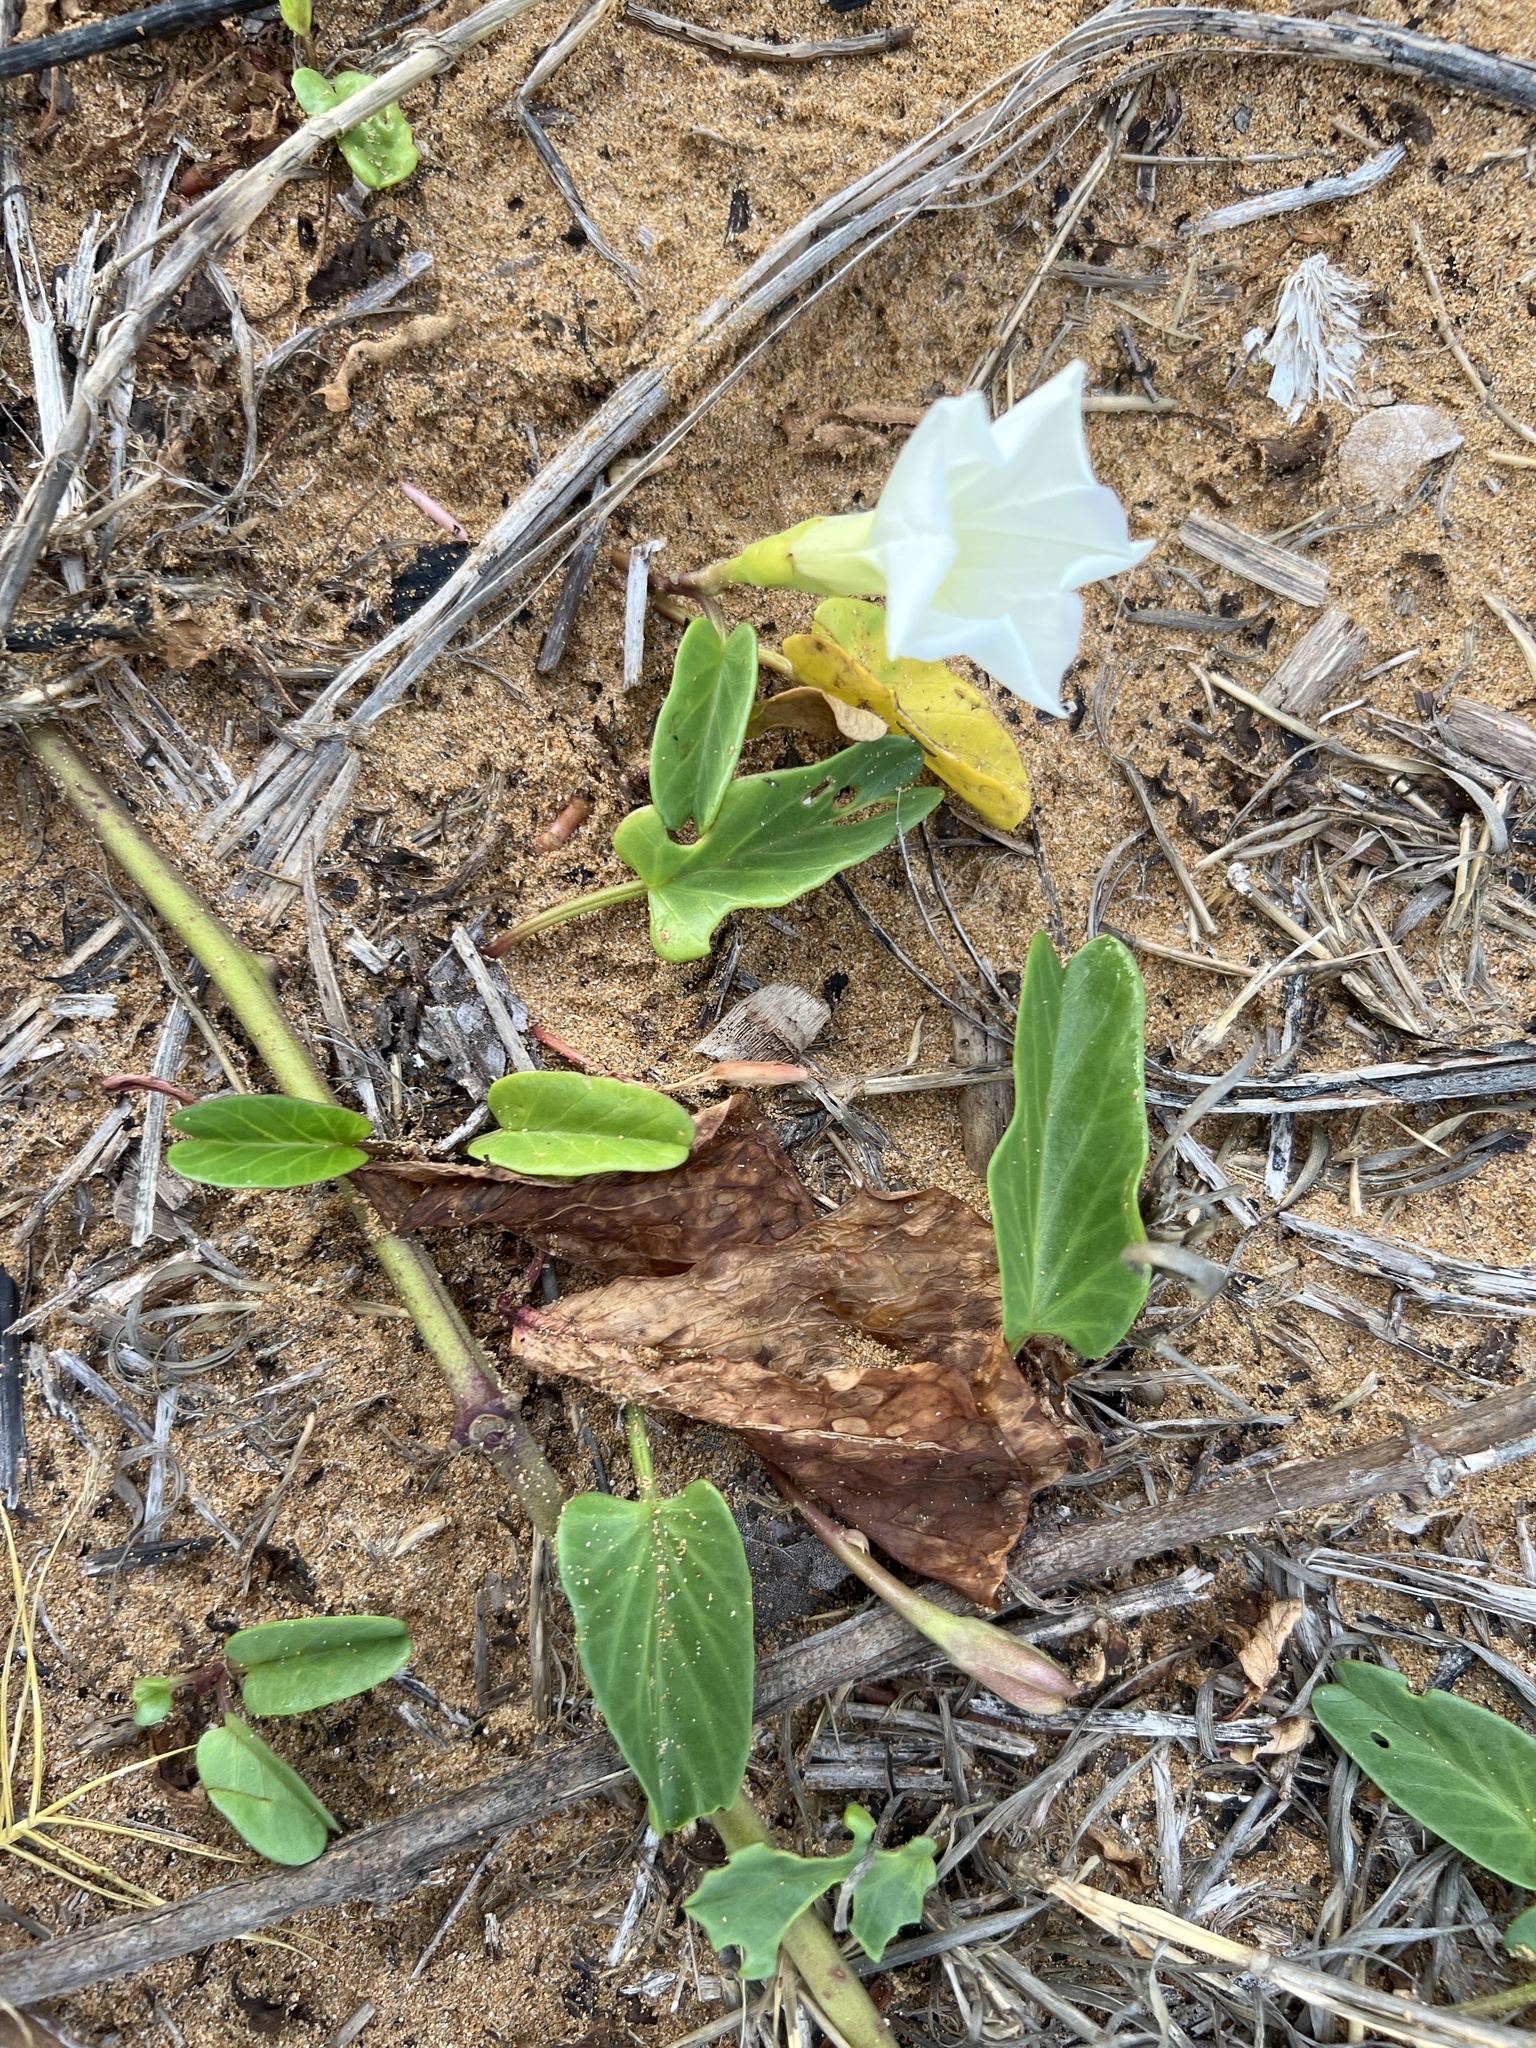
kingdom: Plantae
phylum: Tracheophyta
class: Magnoliopsida
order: Solanales
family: Convolvulaceae
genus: Ipomoea
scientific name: Ipomoea imperati
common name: Fiddle-leaf morning-glory
